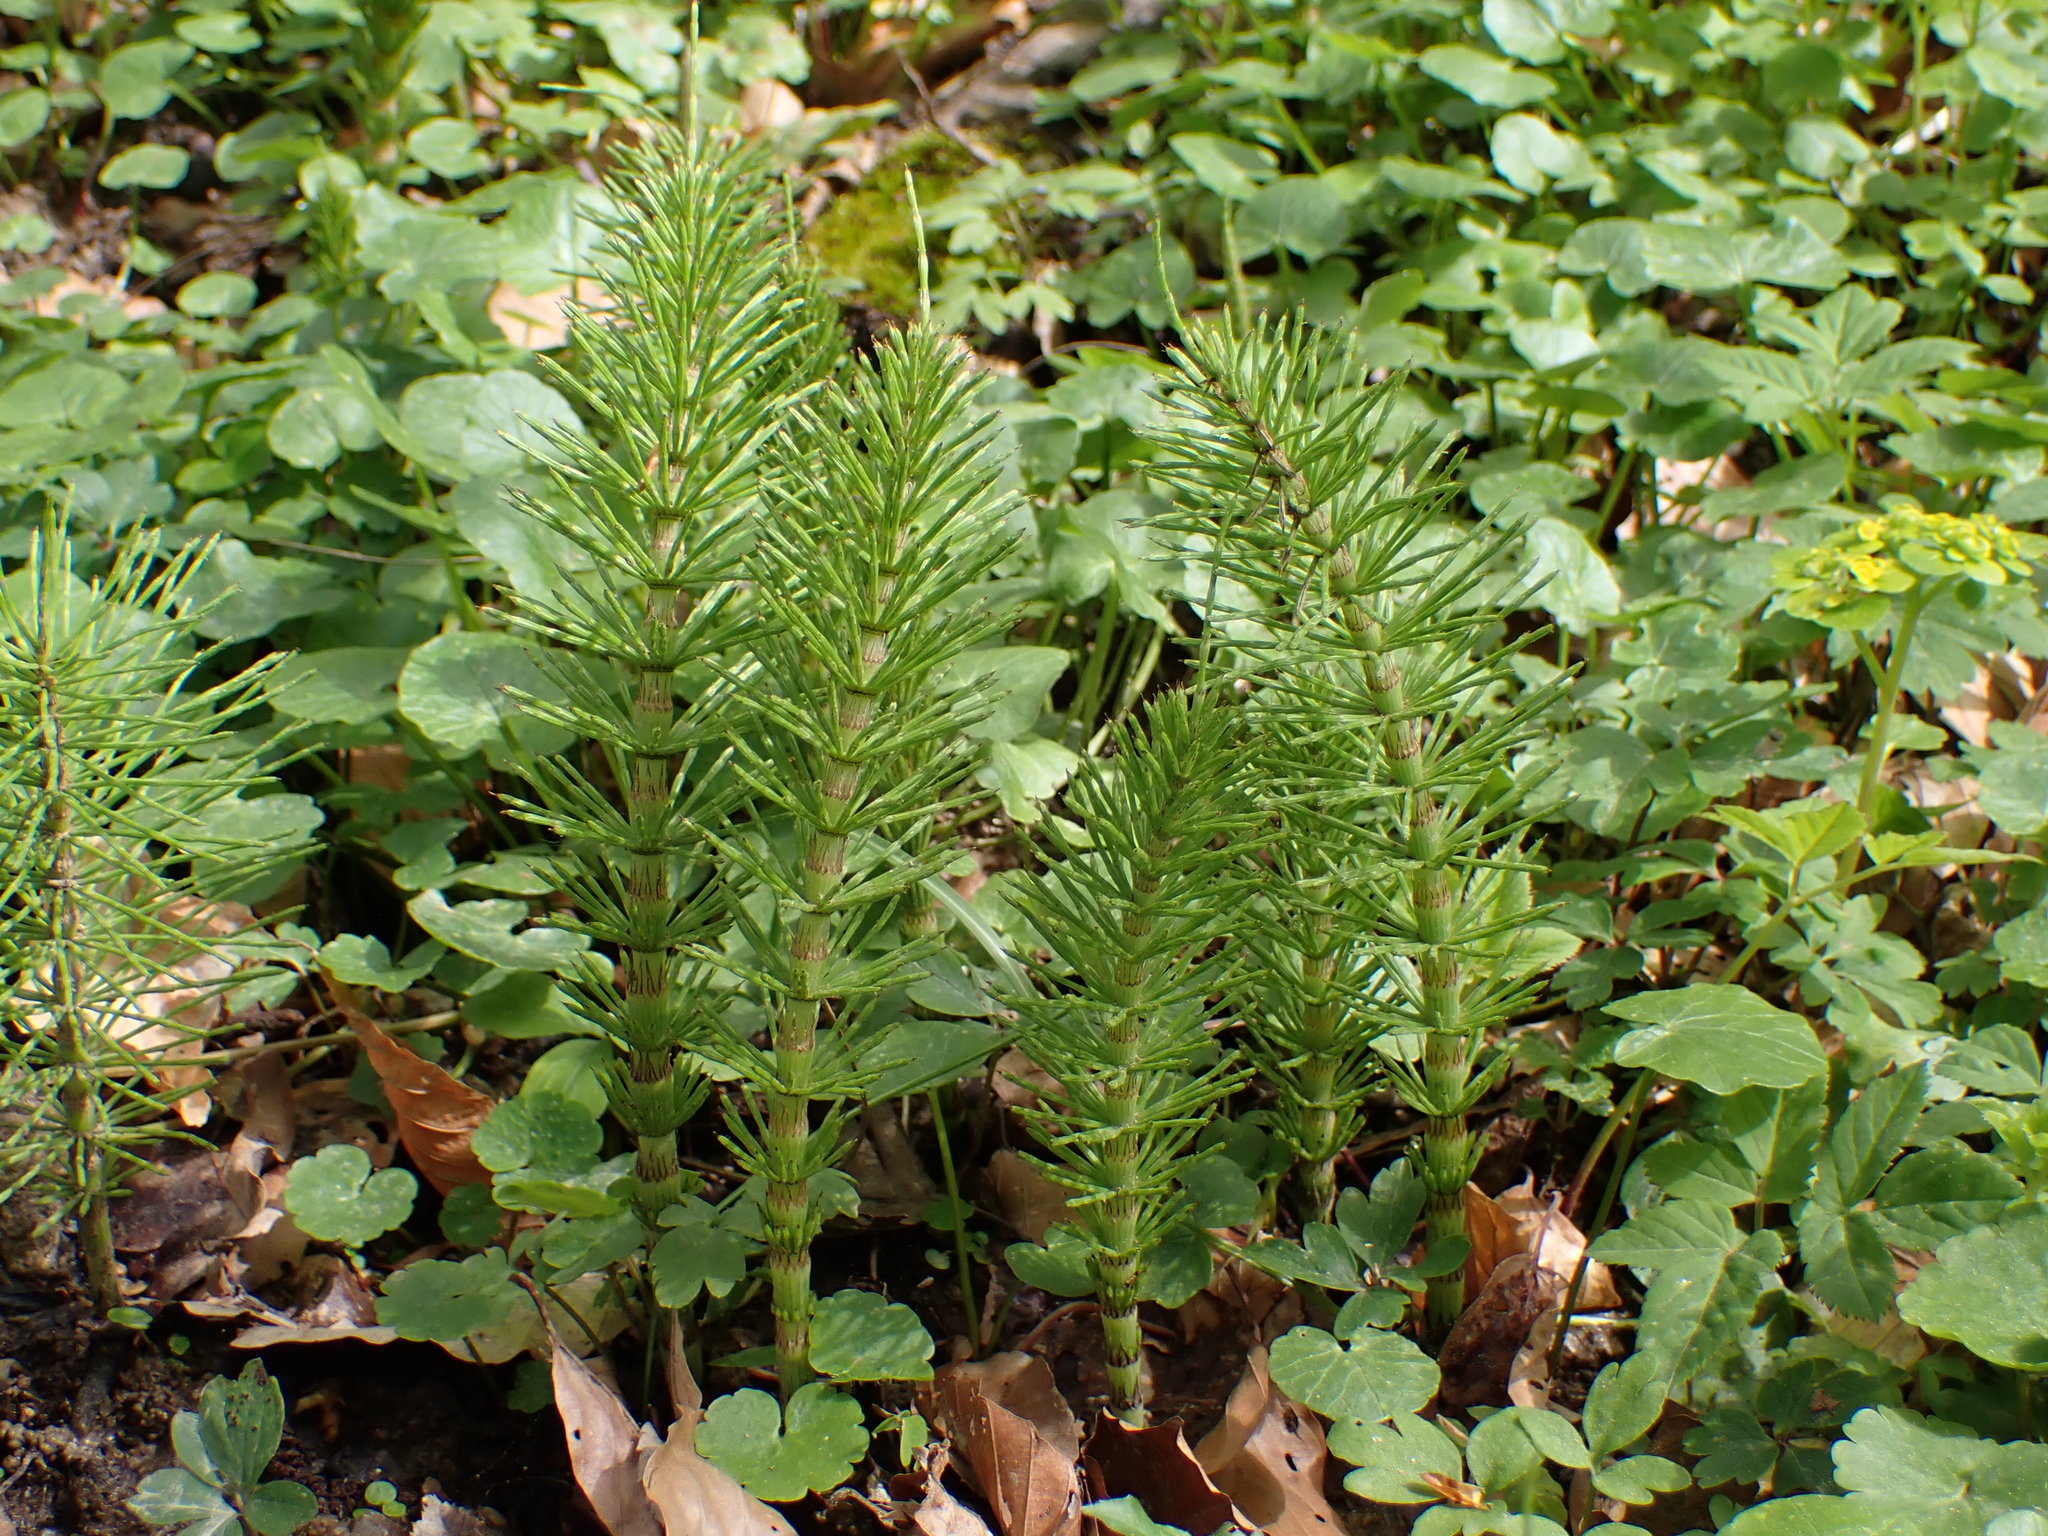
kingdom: Plantae
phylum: Tracheophyta
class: Polypodiopsida
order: Equisetales
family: Equisetaceae
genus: Equisetum
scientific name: Equisetum telmateia
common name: Great horsetail
